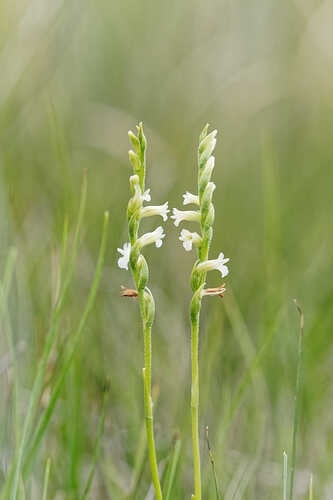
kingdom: Plantae
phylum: Tracheophyta
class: Liliopsida
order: Asparagales
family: Orchidaceae
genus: Spiranthes
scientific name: Spiranthes aestivalis
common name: Summer lady's-tresses
